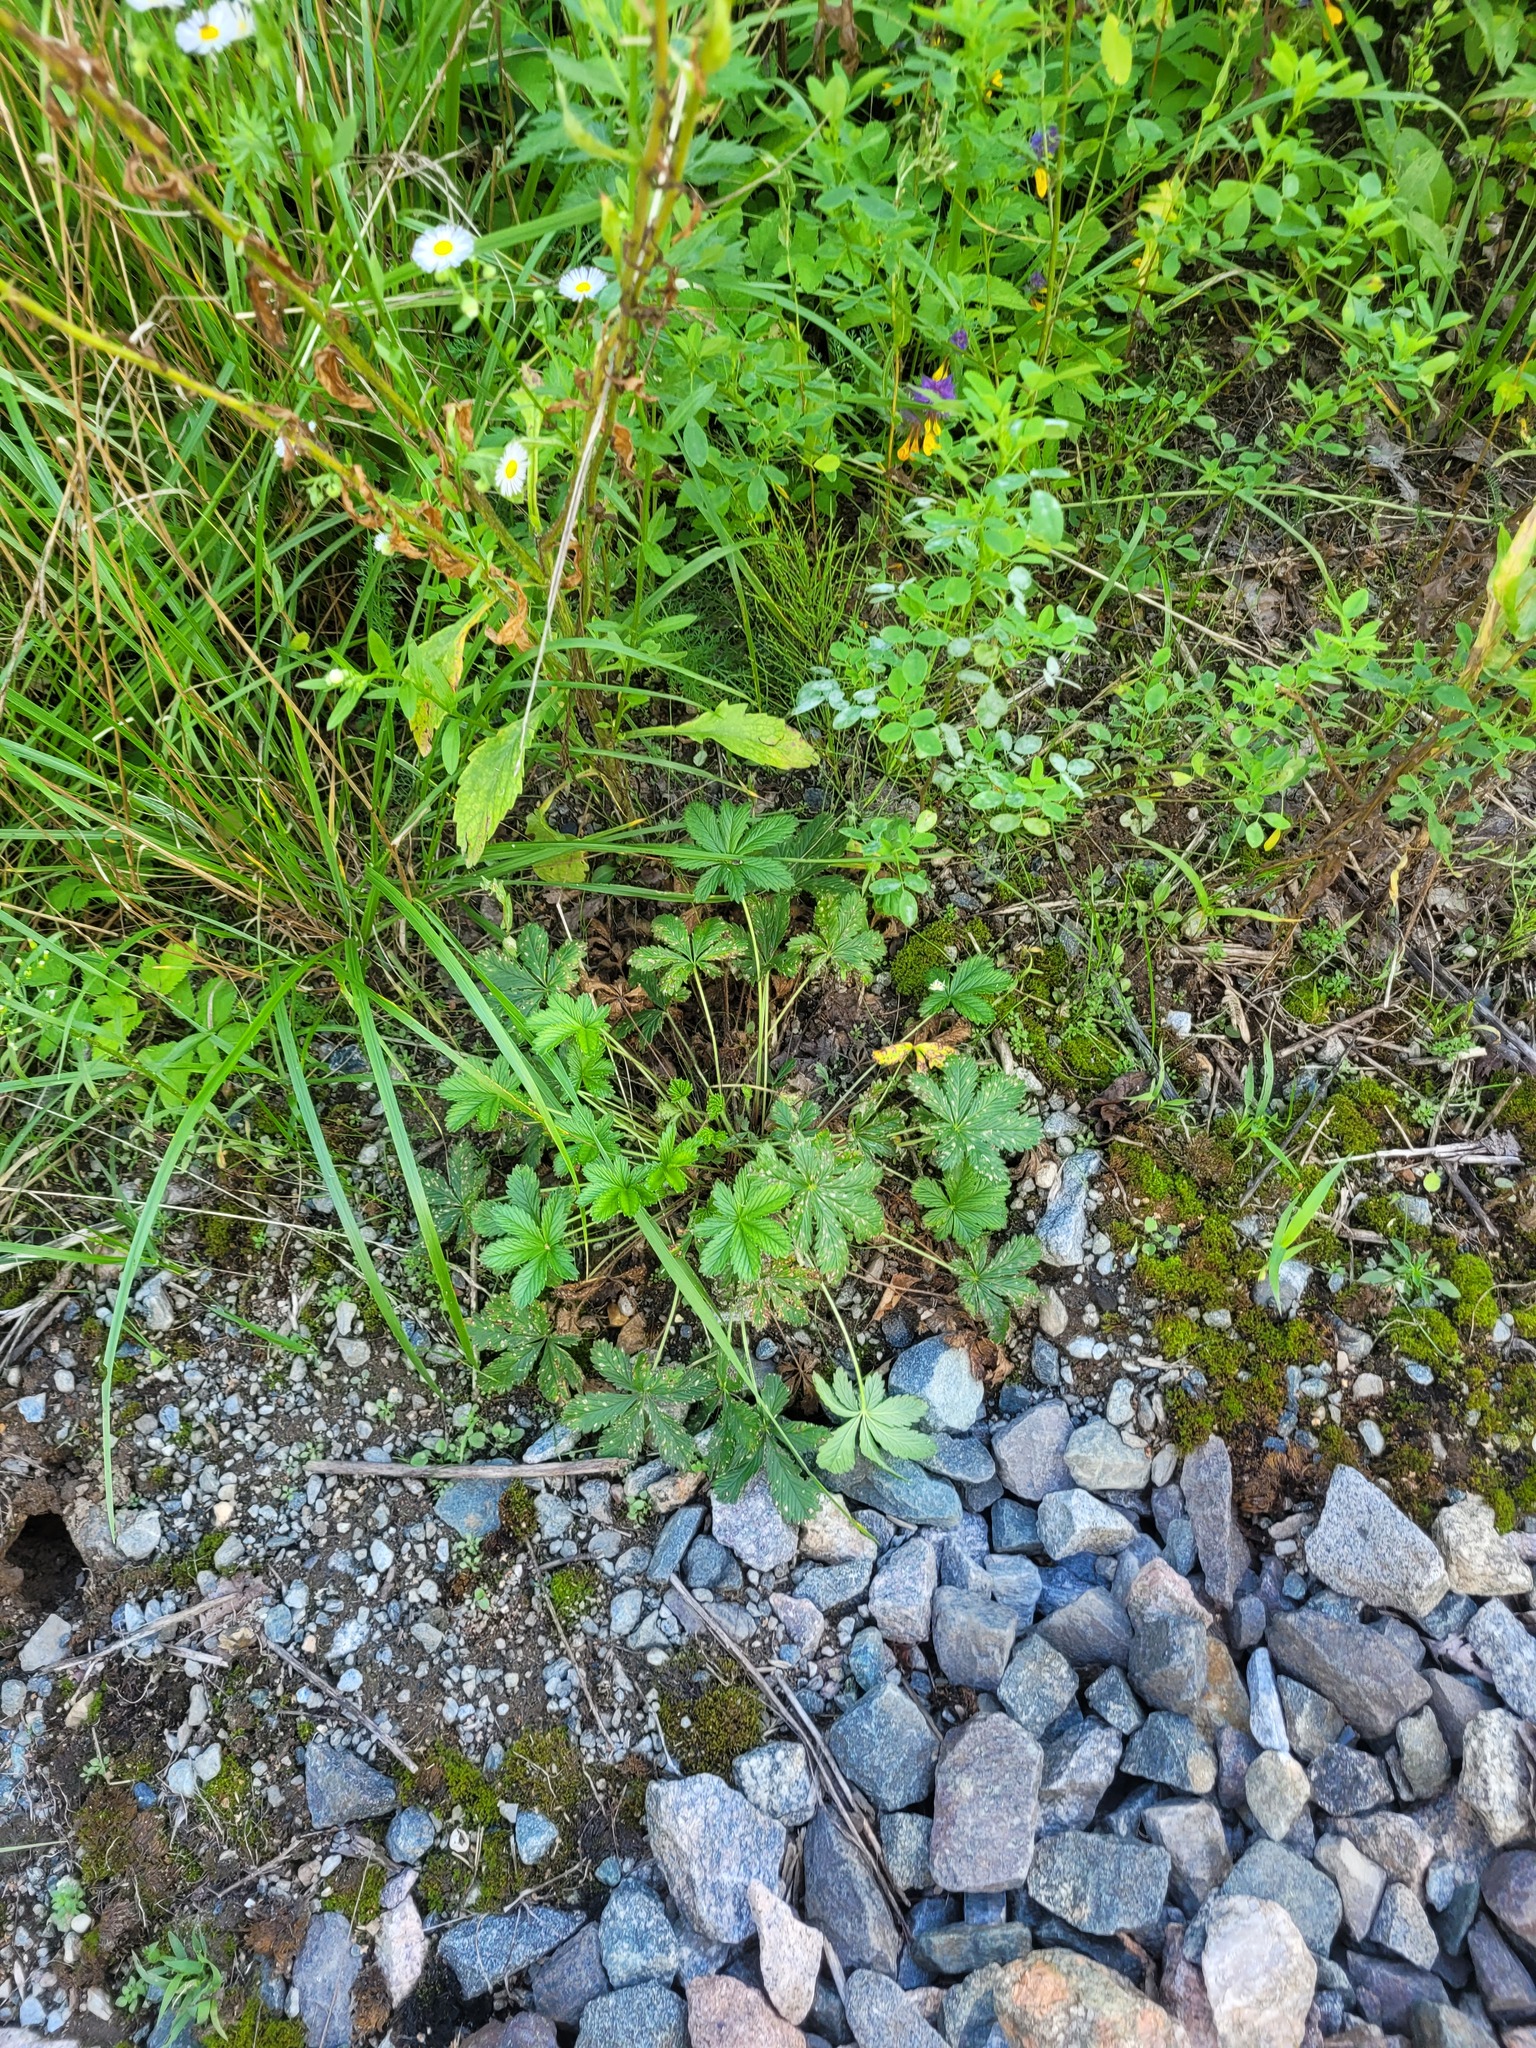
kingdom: Plantae
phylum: Tracheophyta
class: Magnoliopsida
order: Rosales
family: Rosaceae
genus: Potentilla
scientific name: Potentilla thuringiaca
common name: European cinquefoil
